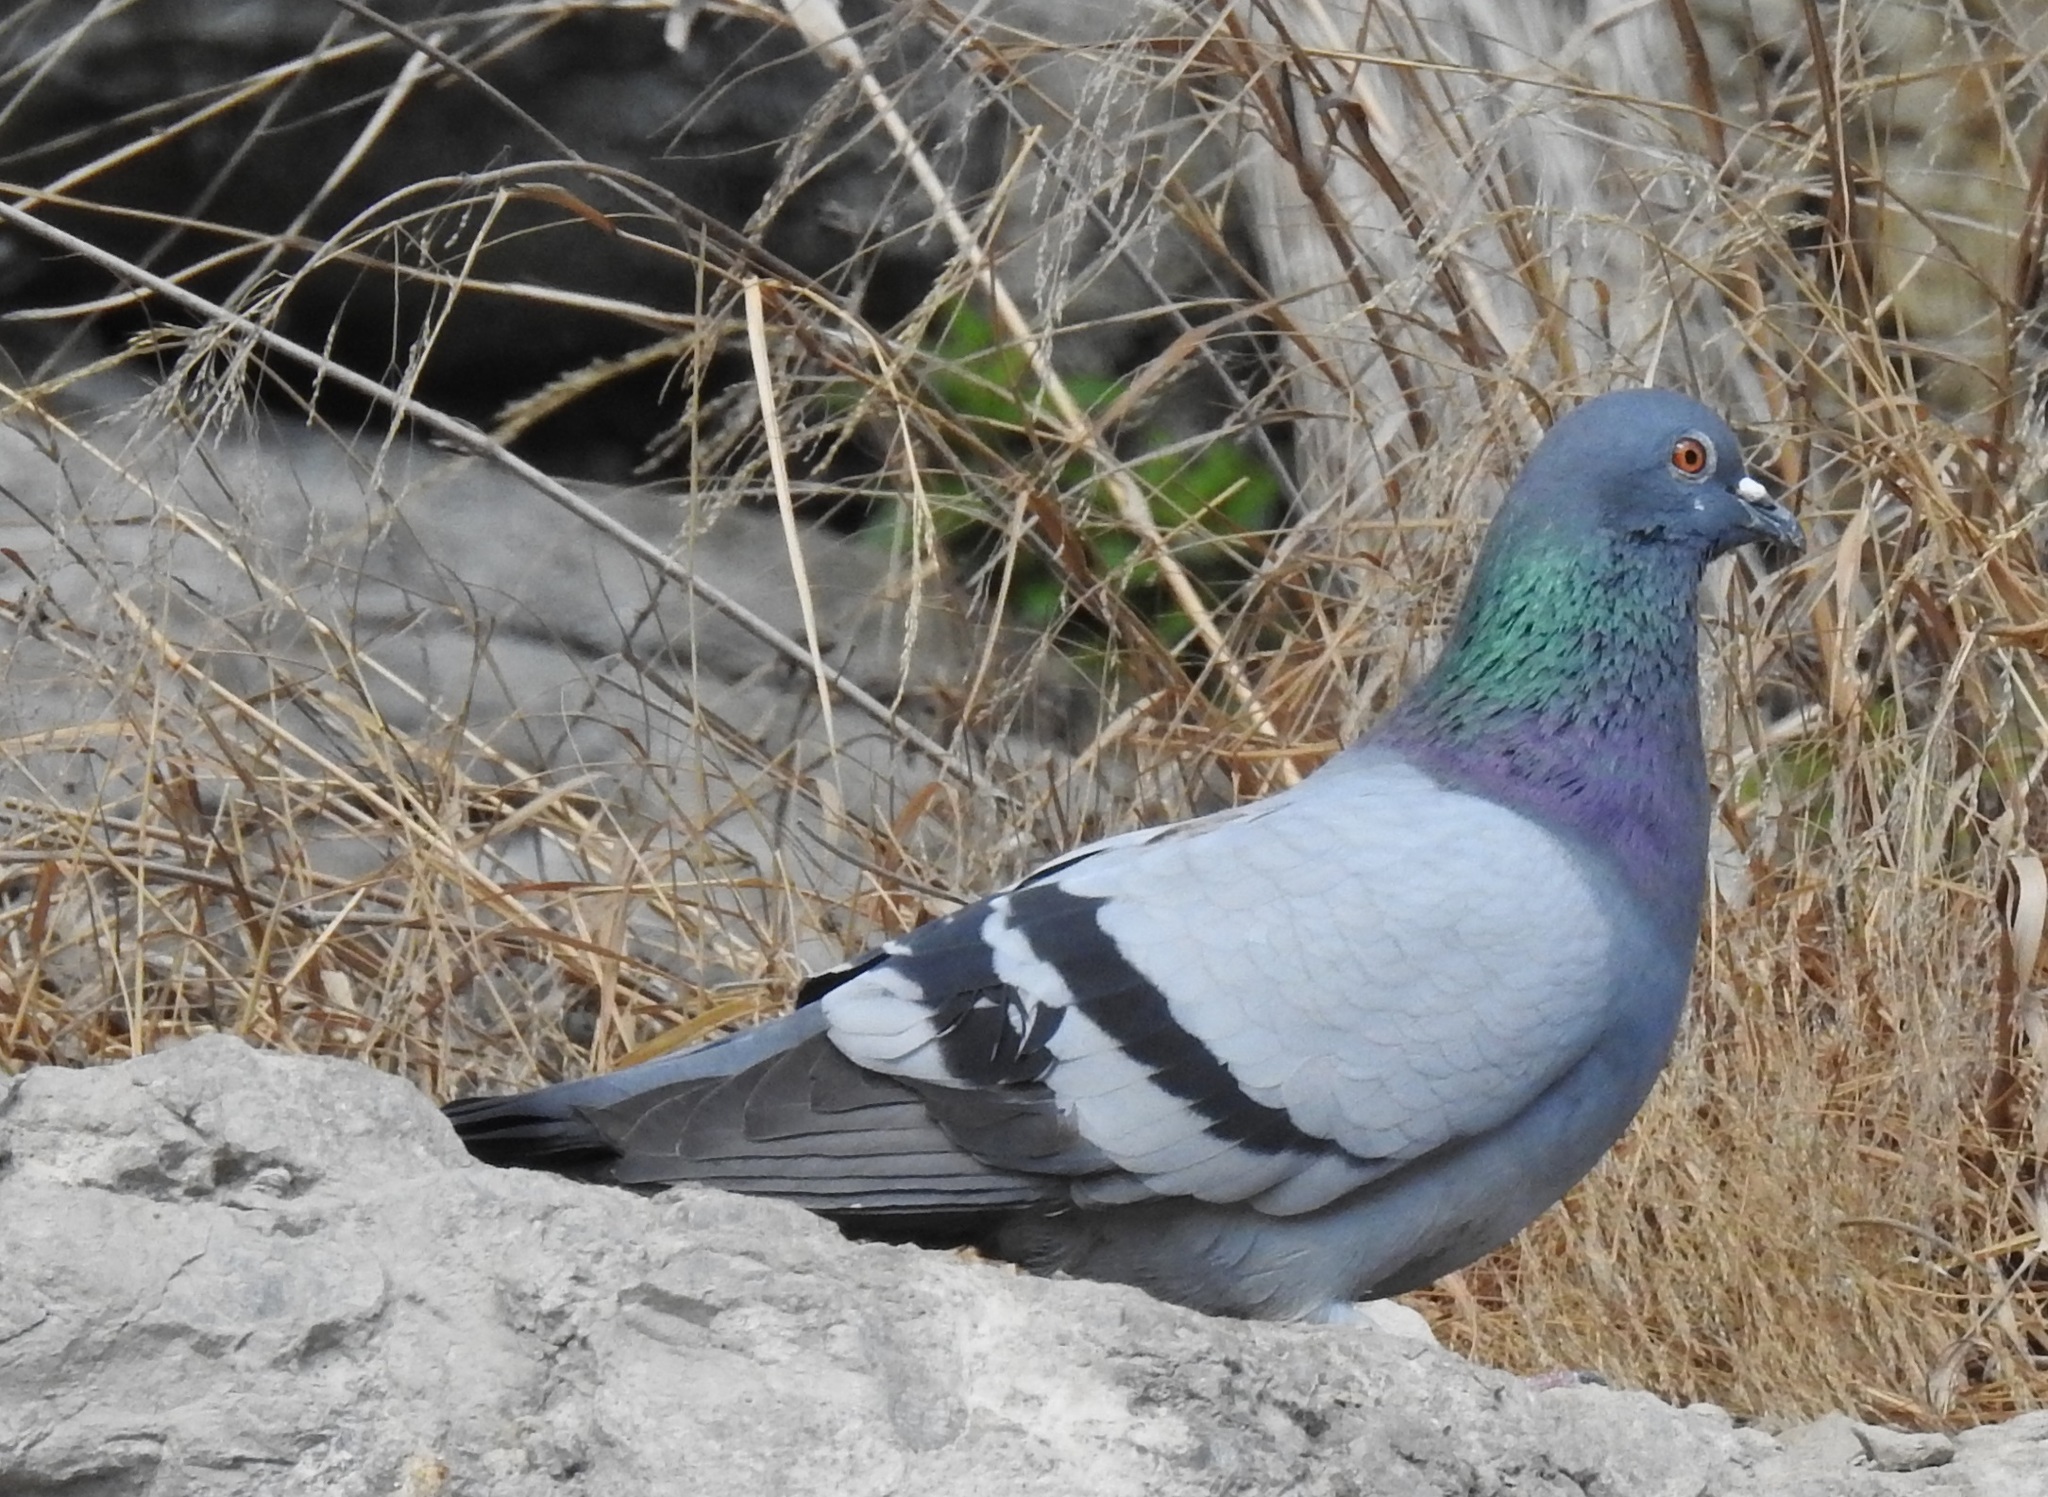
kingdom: Animalia
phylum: Chordata
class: Aves
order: Columbiformes
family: Columbidae
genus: Columba
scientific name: Columba livia
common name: Rock pigeon
